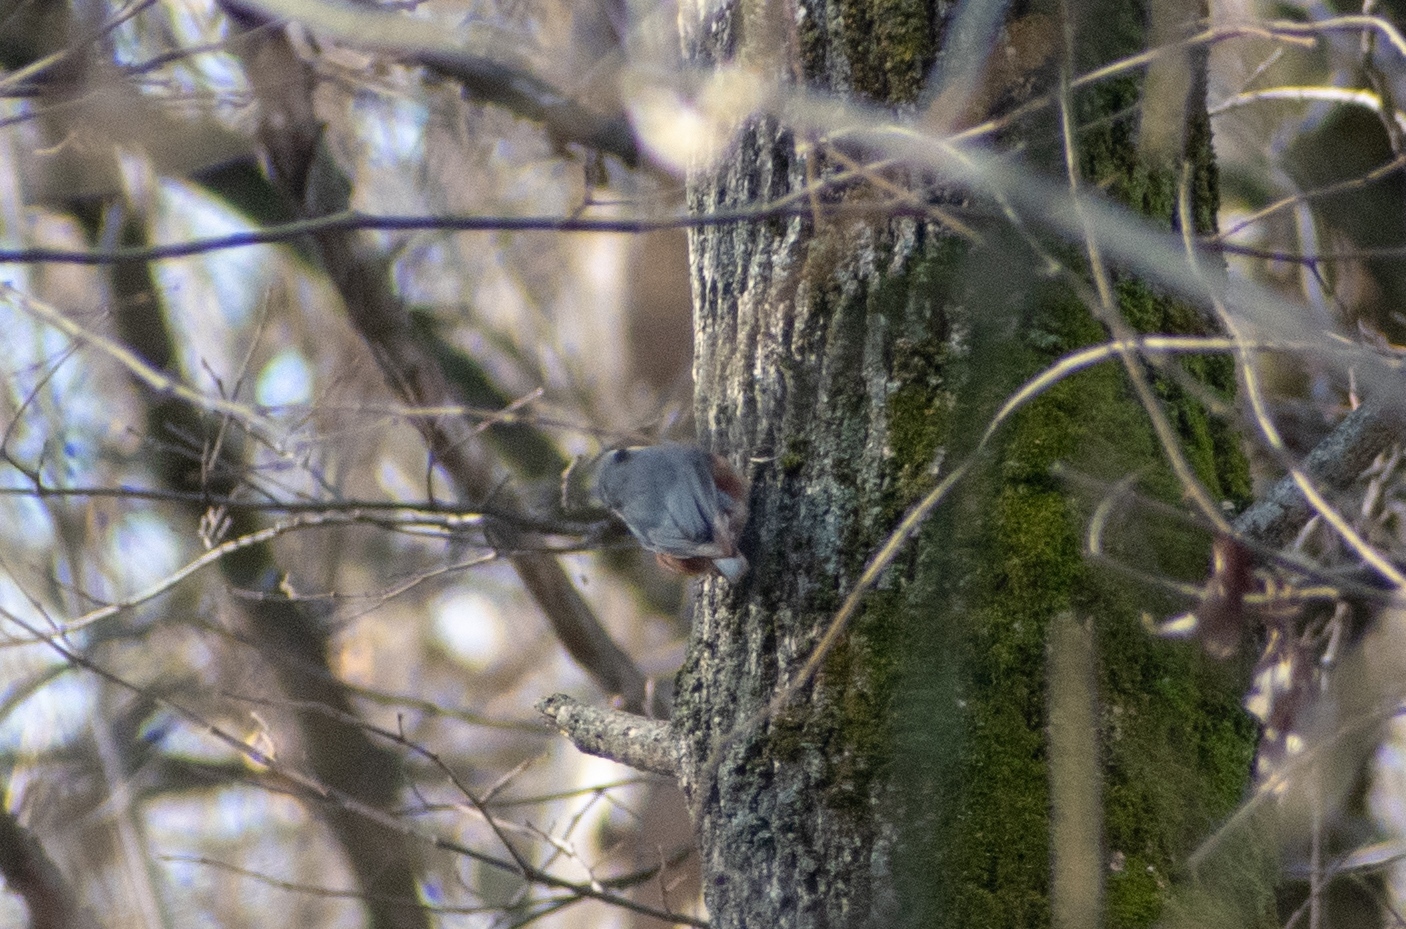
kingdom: Animalia
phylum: Chordata
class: Aves
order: Passeriformes
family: Sittidae
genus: Sitta
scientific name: Sitta europaea
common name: Eurasian nuthatch
